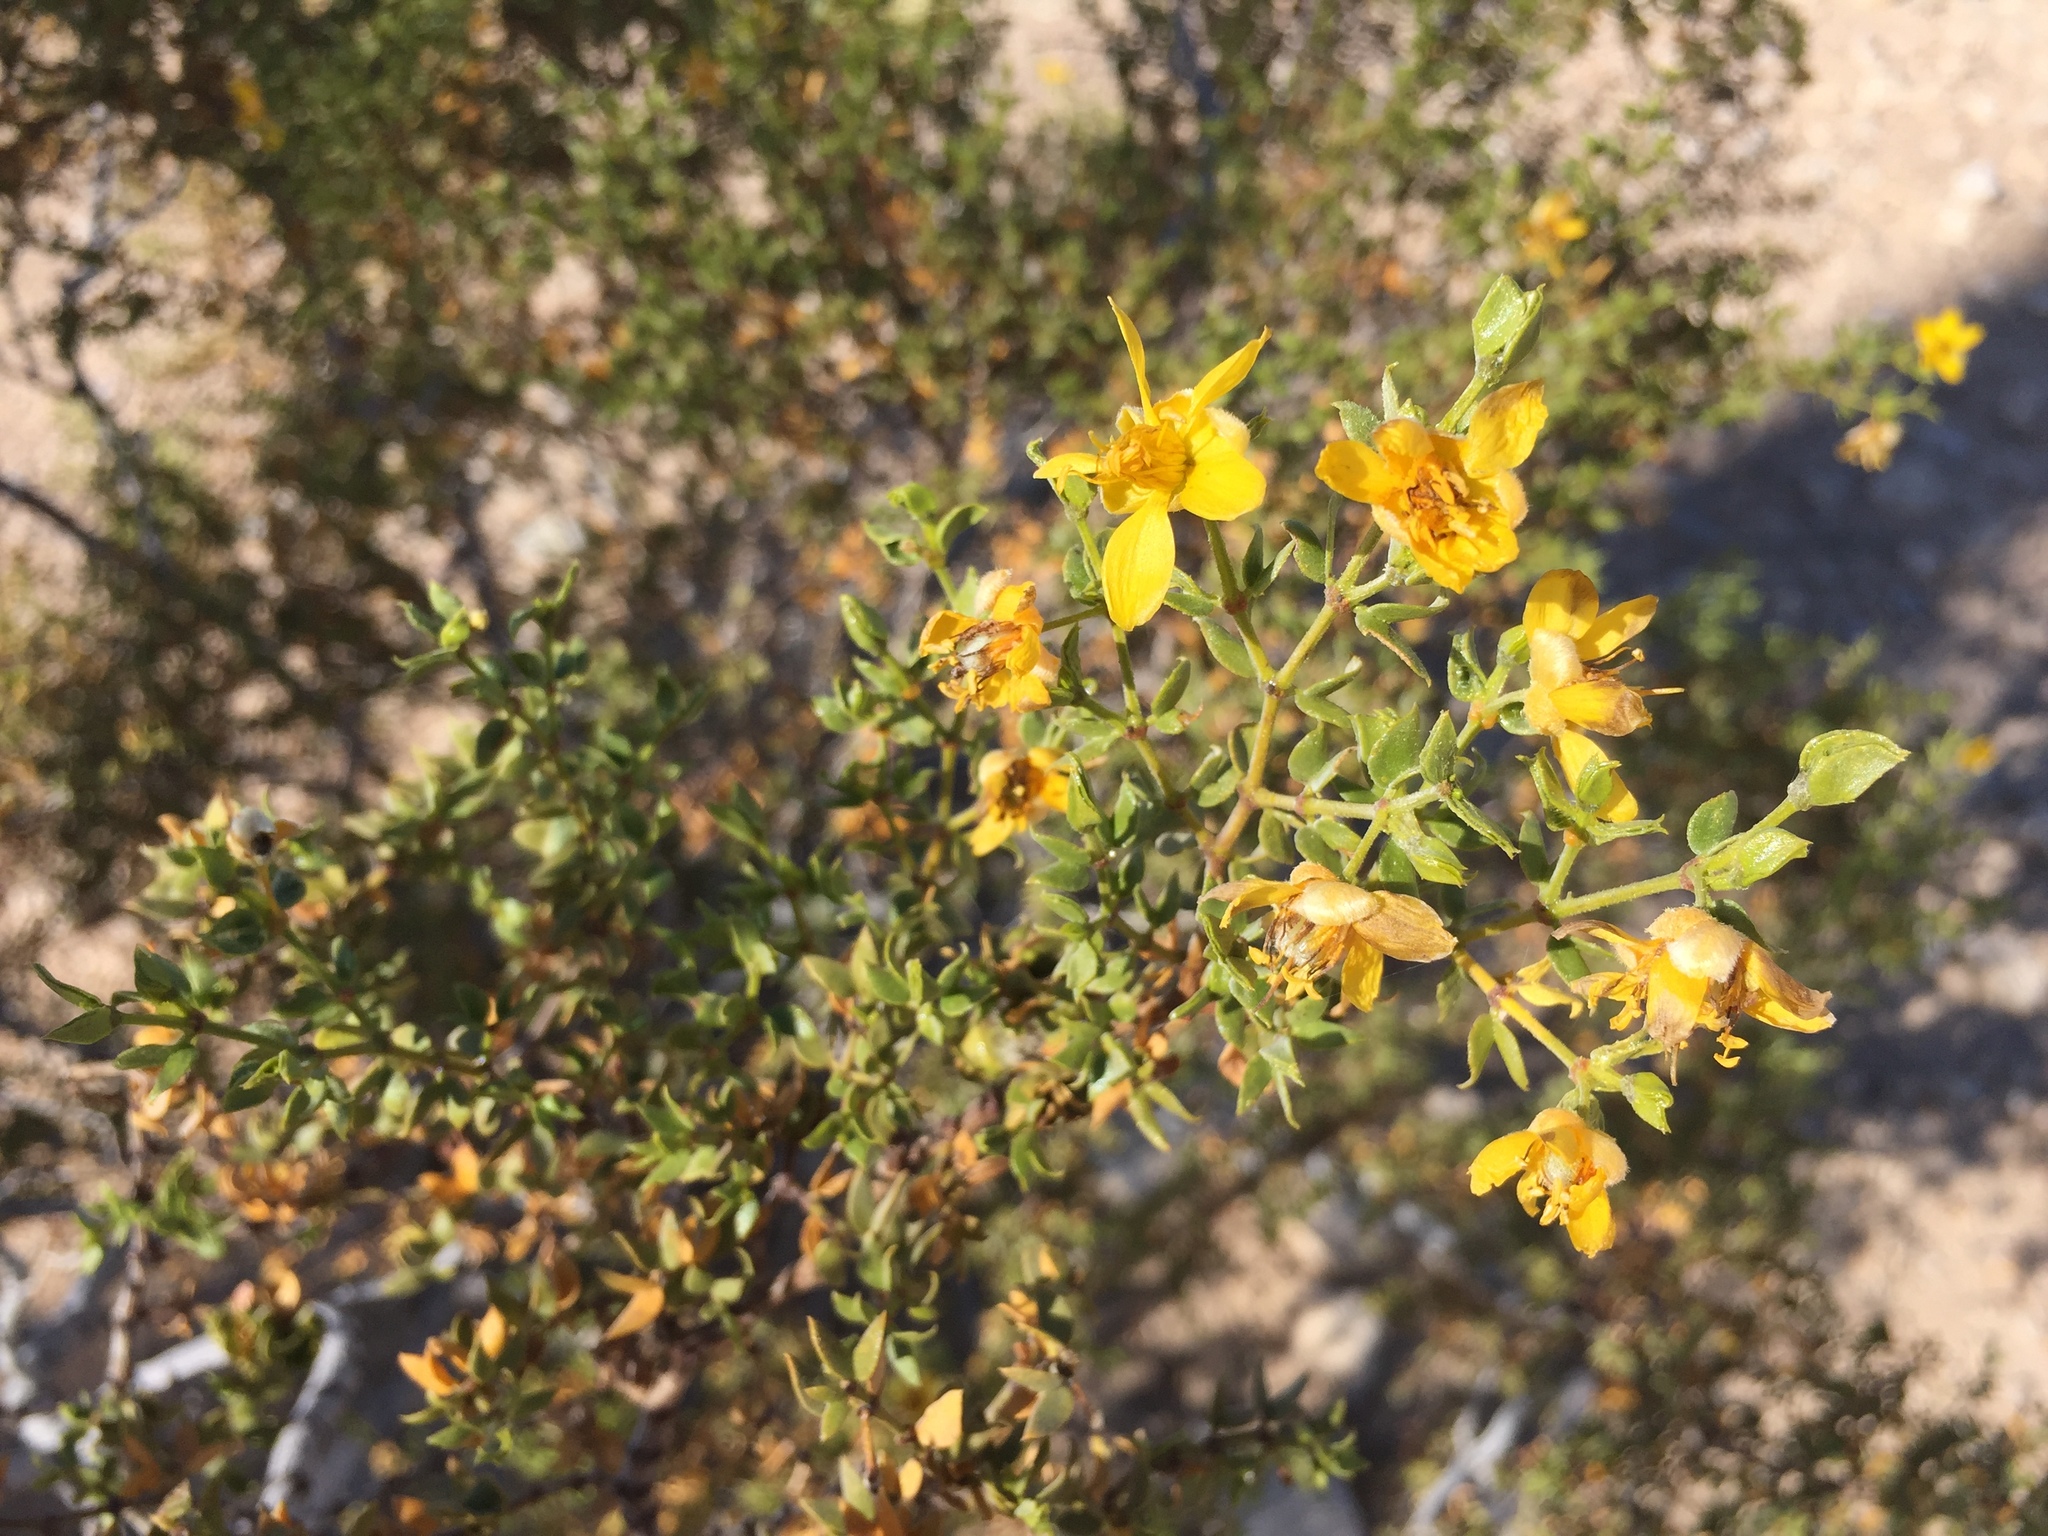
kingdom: Plantae
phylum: Tracheophyta
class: Magnoliopsida
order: Zygophyllales
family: Zygophyllaceae
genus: Larrea
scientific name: Larrea tridentata
